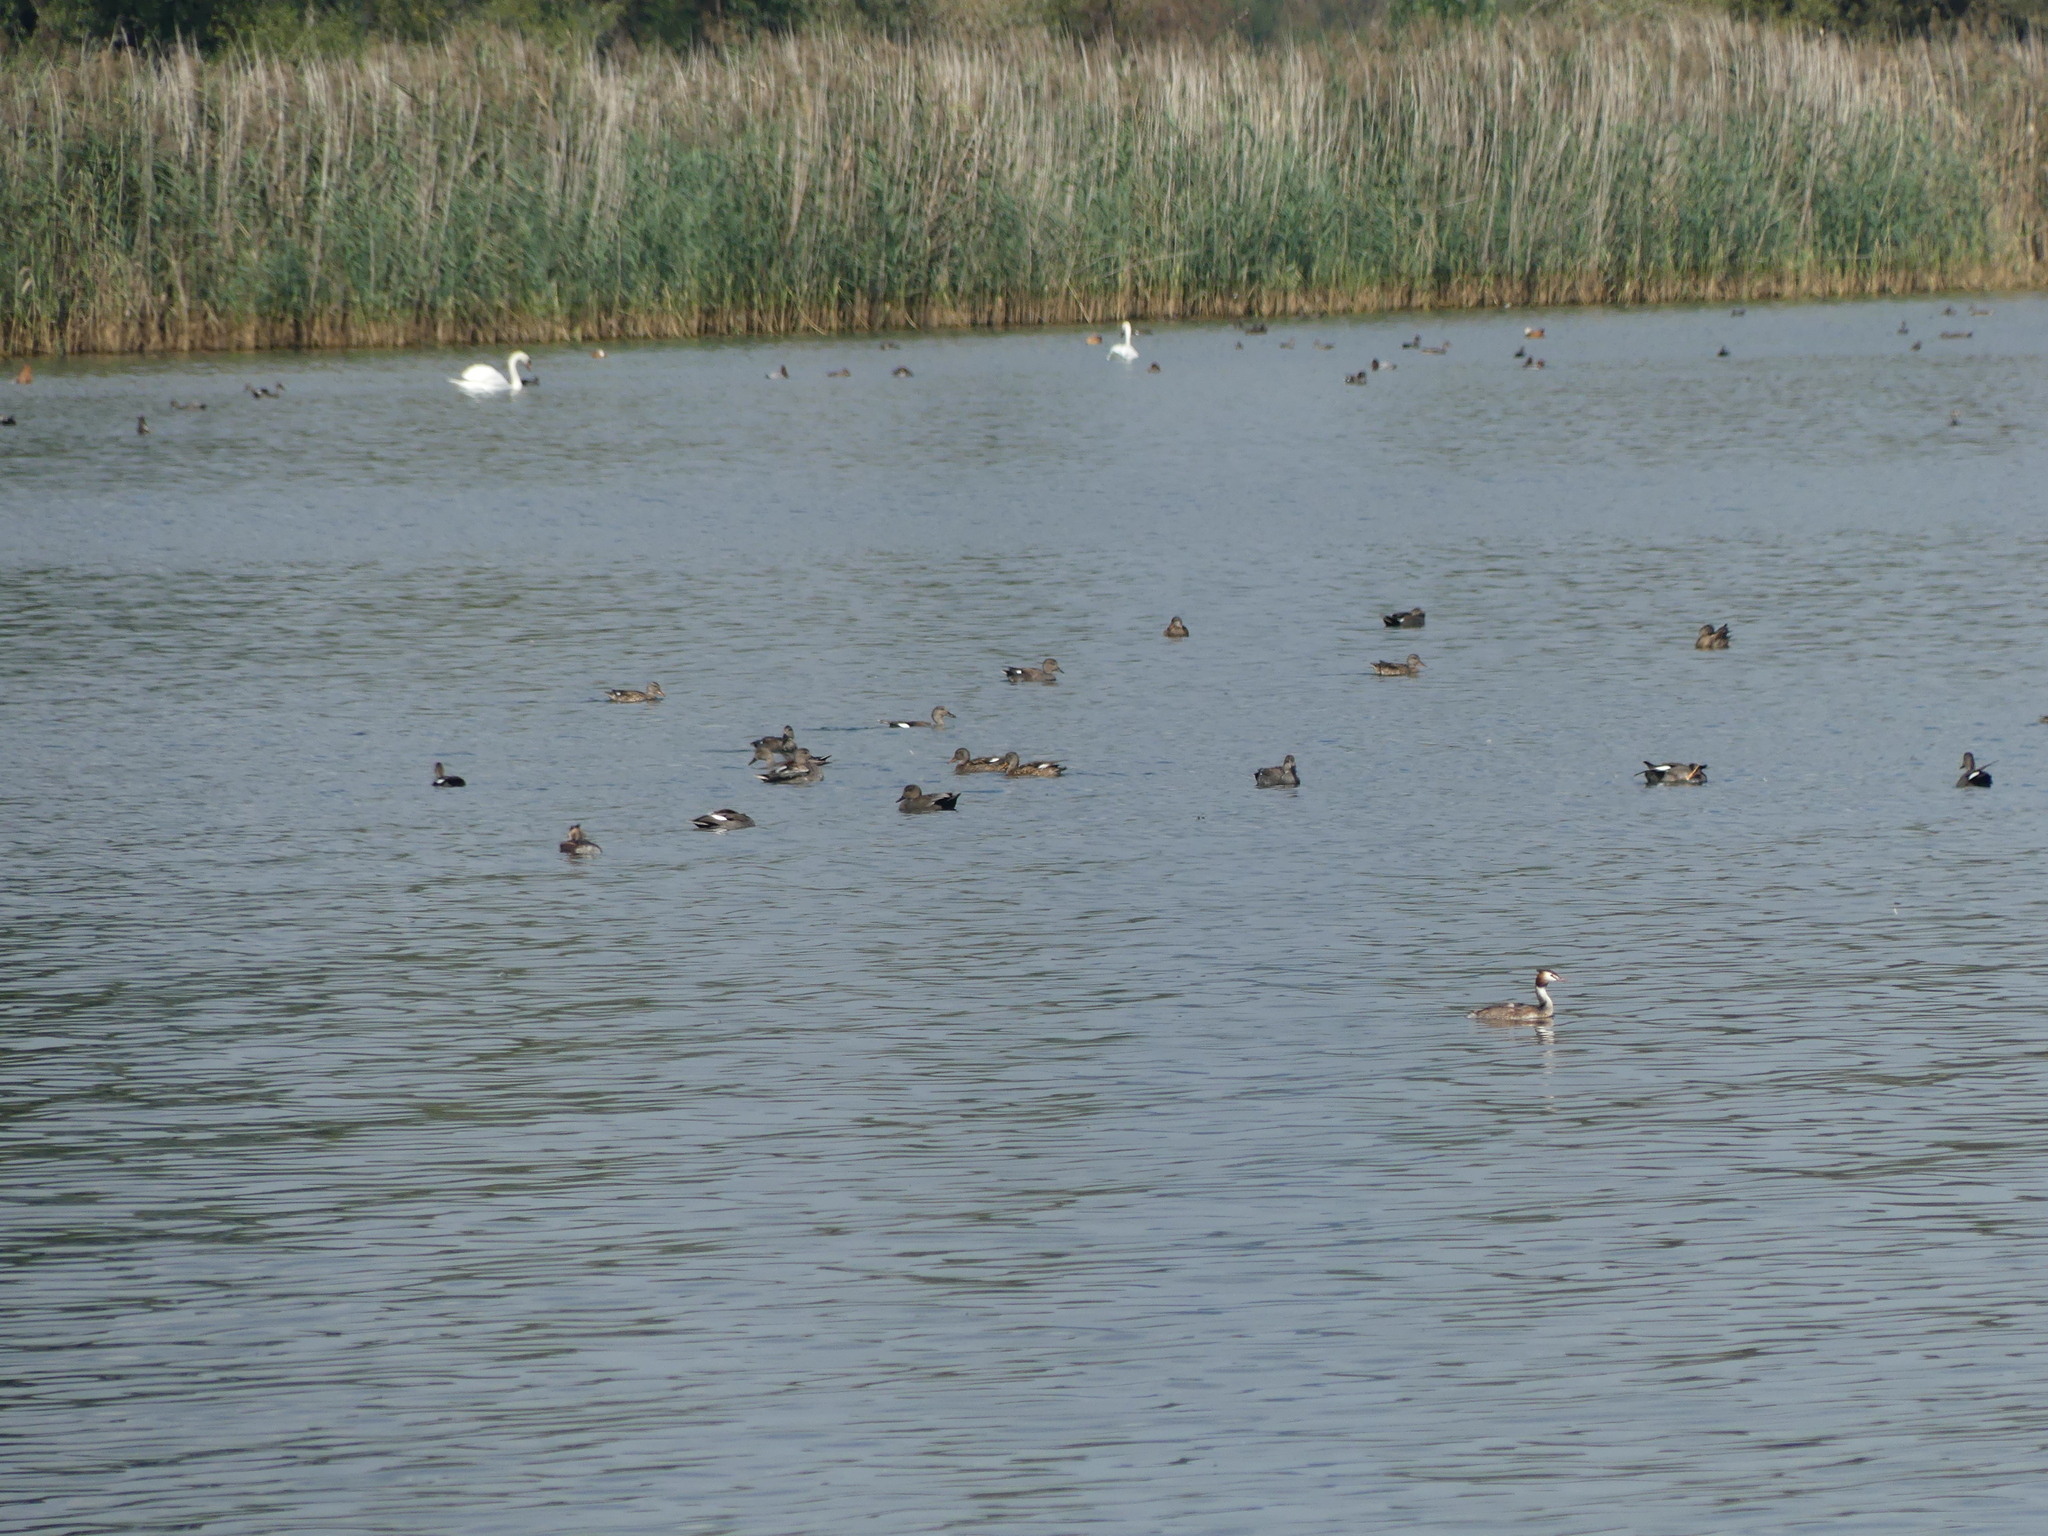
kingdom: Animalia
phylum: Chordata
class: Aves
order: Podicipediformes
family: Podicipedidae
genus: Podiceps
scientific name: Podiceps cristatus
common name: Great crested grebe
